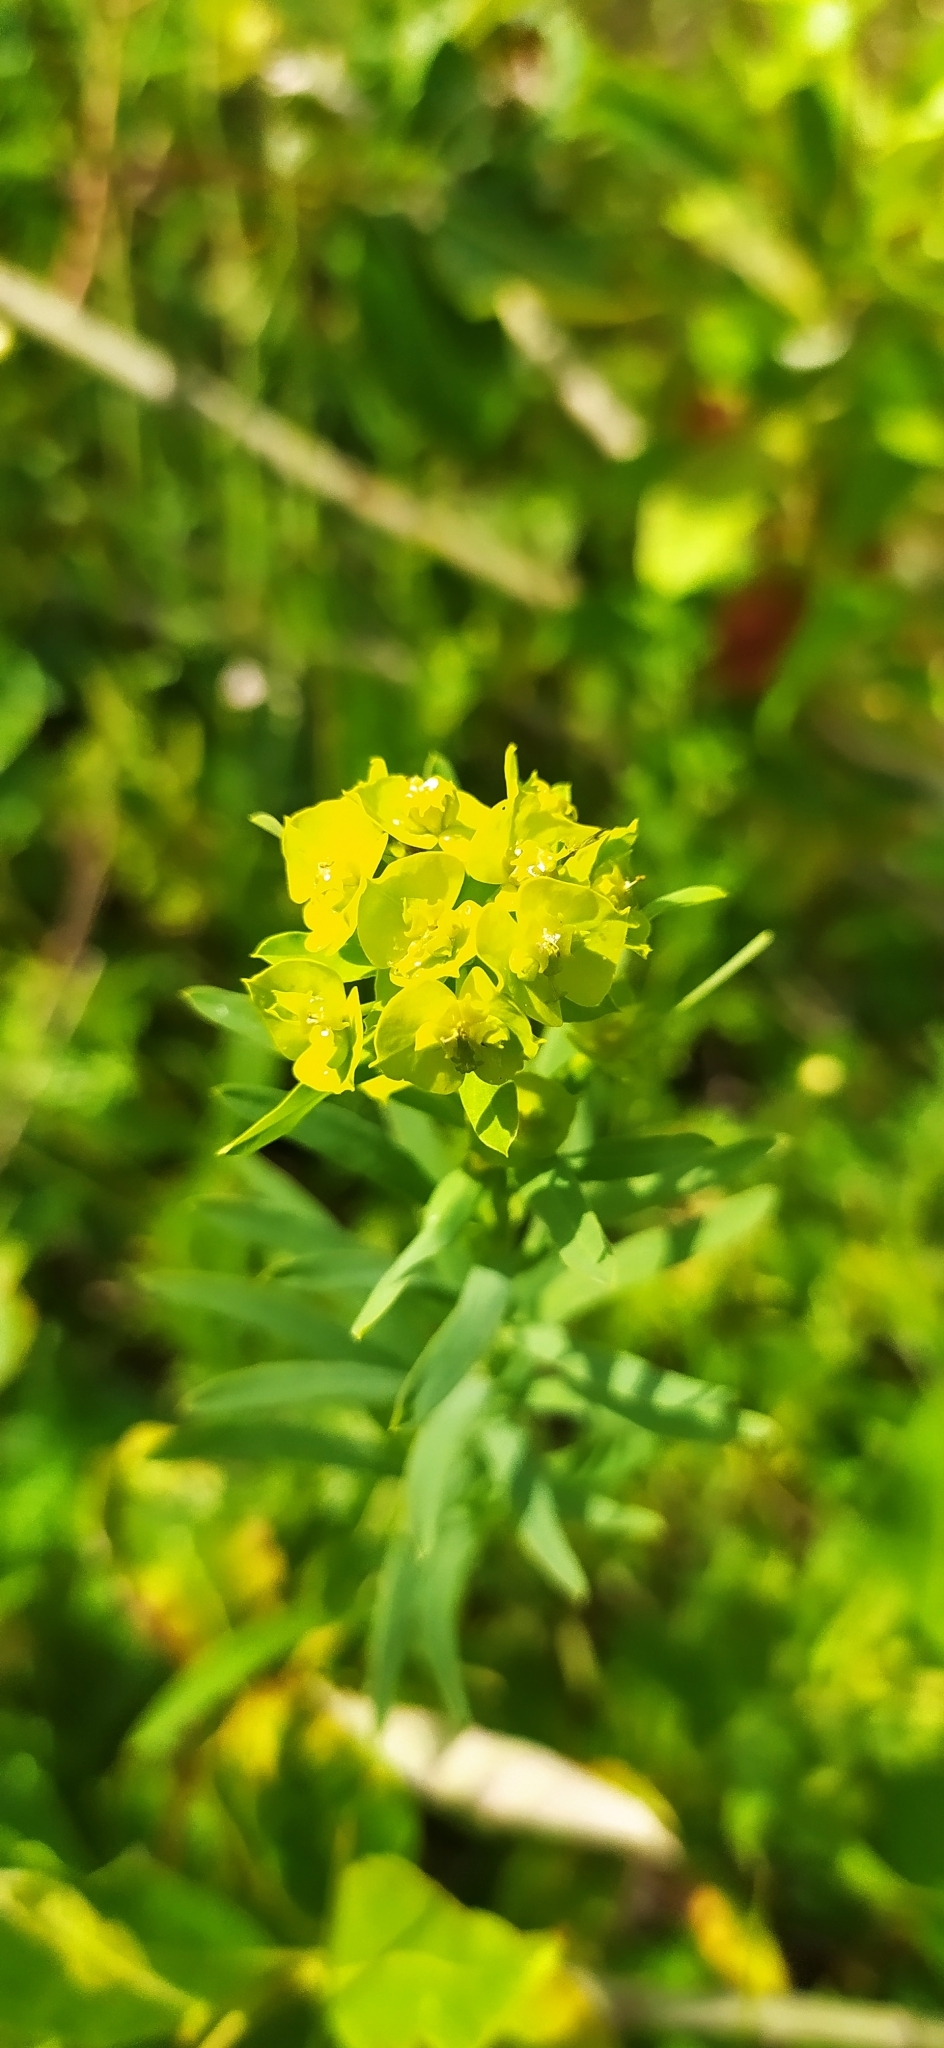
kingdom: Plantae
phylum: Tracheophyta
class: Magnoliopsida
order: Malpighiales
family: Euphorbiaceae
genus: Euphorbia
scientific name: Euphorbia virgata
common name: Leafy spurge
